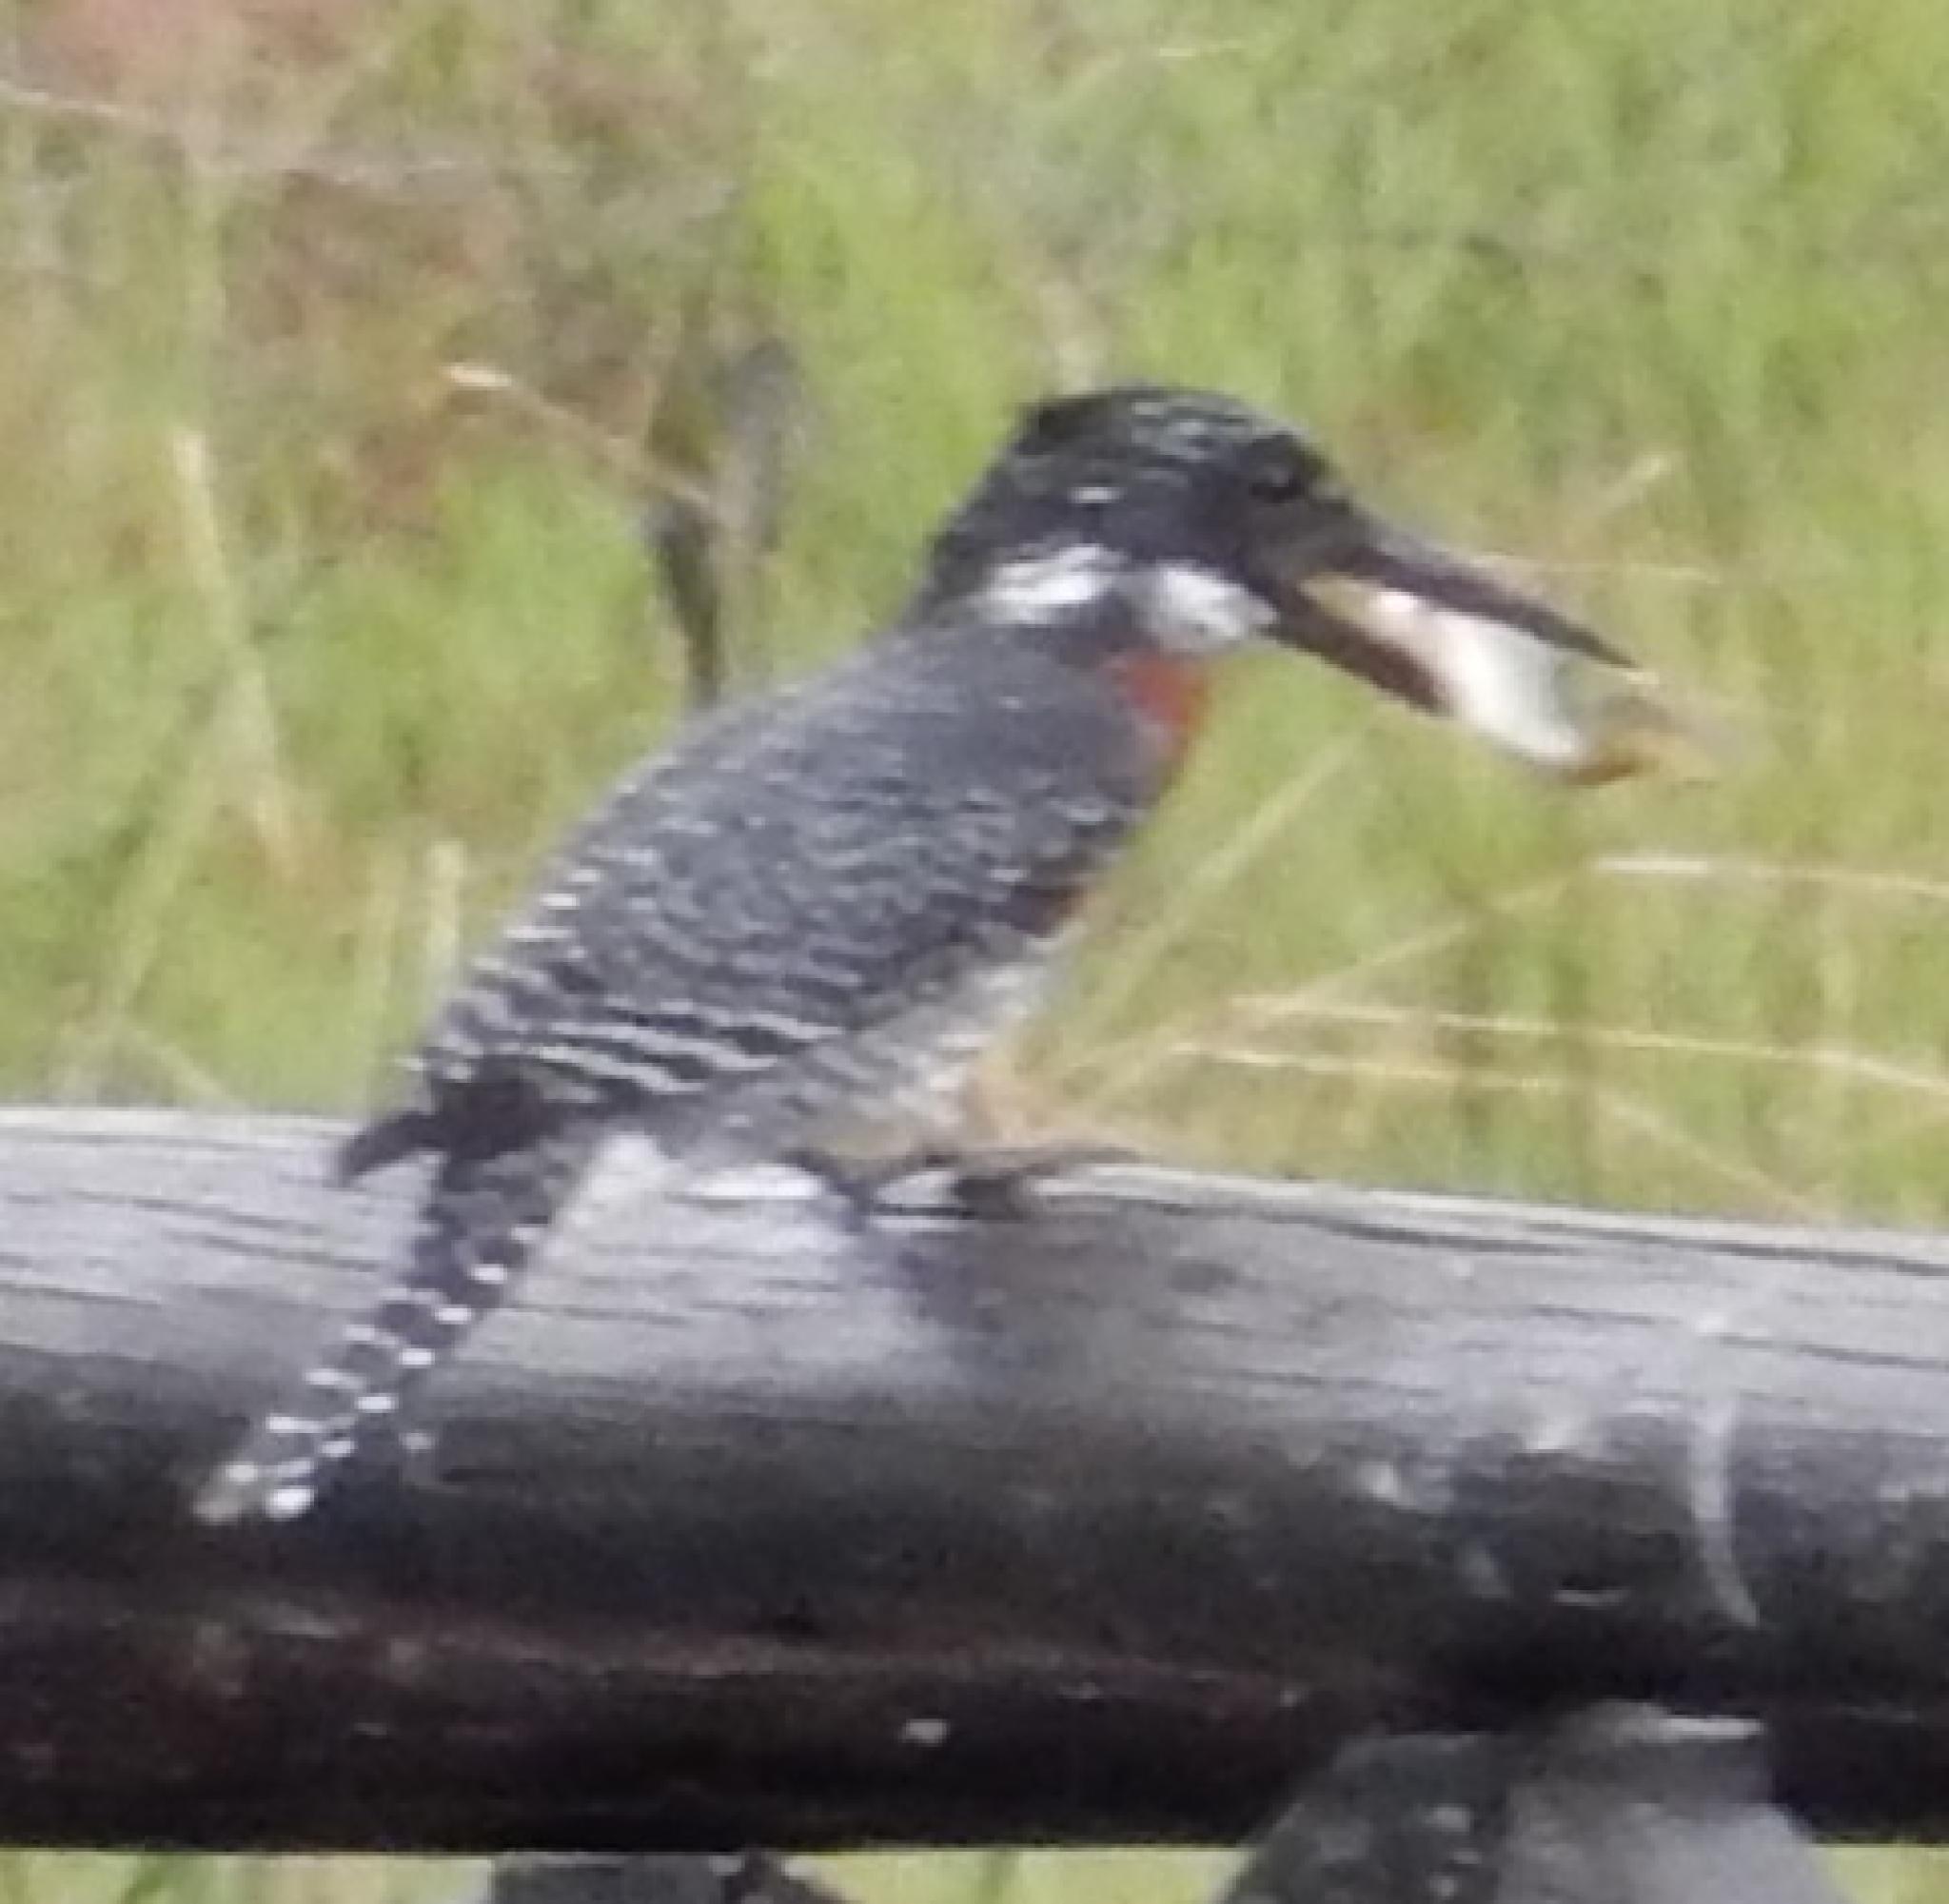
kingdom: Animalia
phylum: Chordata
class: Aves
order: Coraciiformes
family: Alcedinidae
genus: Megaceryle
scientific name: Megaceryle maxima
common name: Giant kingfisher
